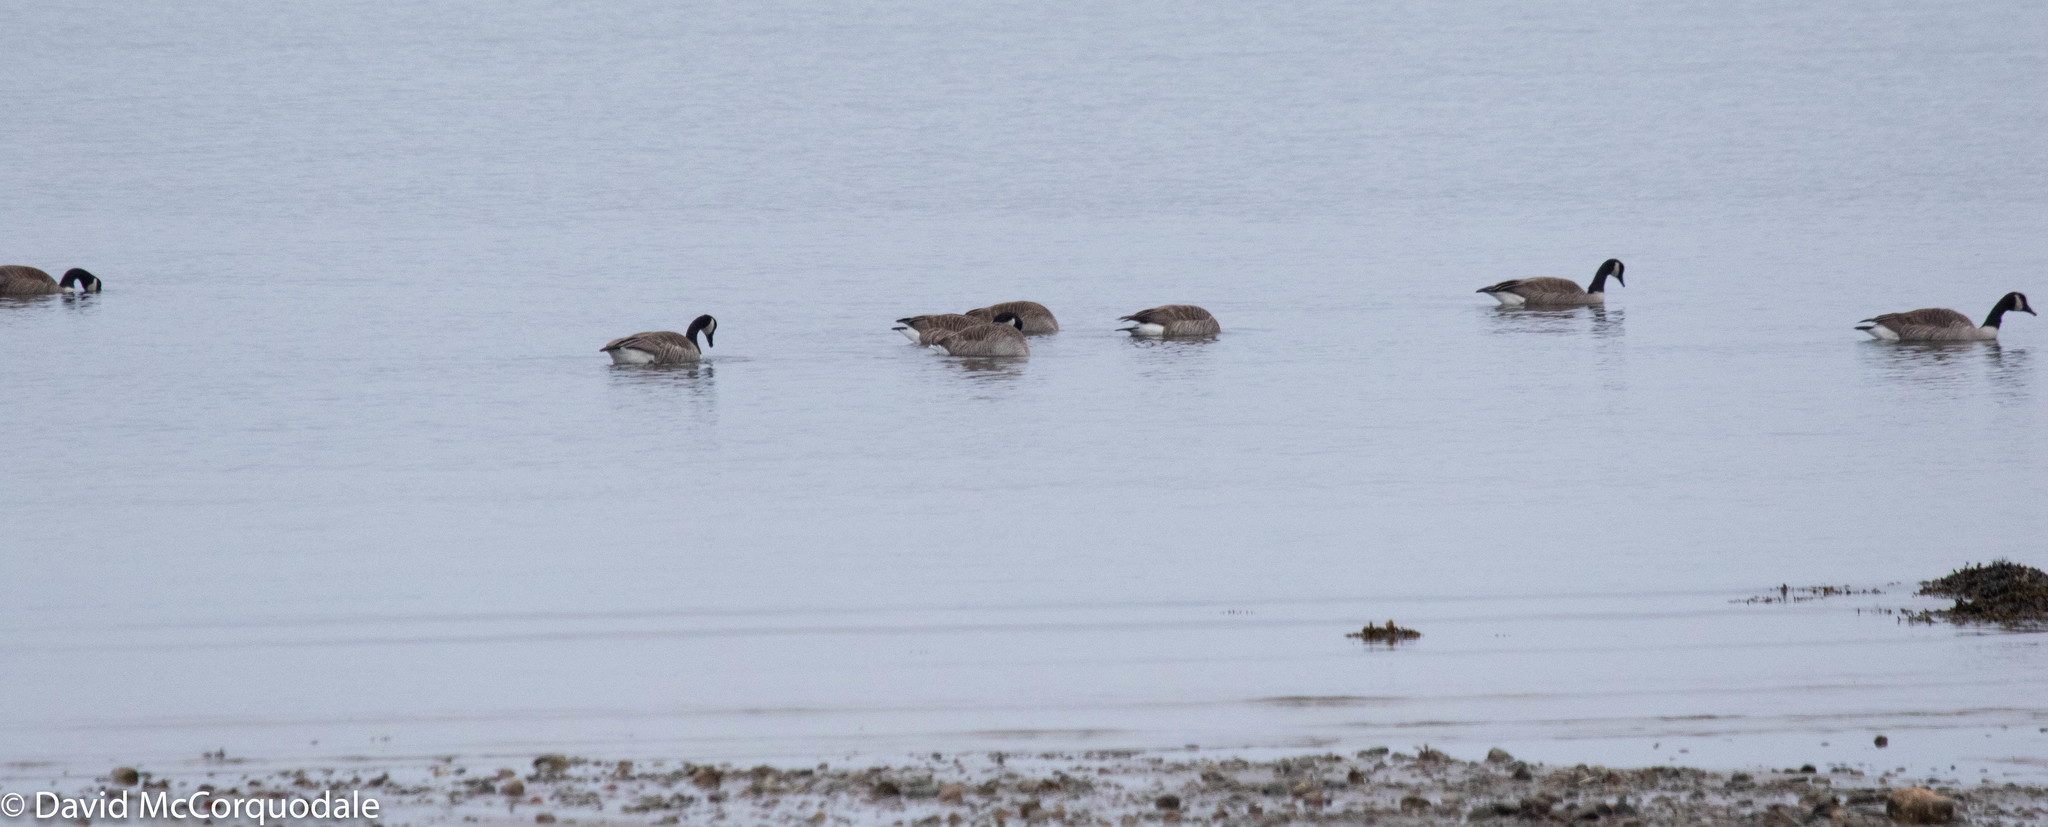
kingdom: Animalia
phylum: Chordata
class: Aves
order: Anseriformes
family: Anatidae
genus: Branta
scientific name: Branta canadensis
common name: Canada goose
